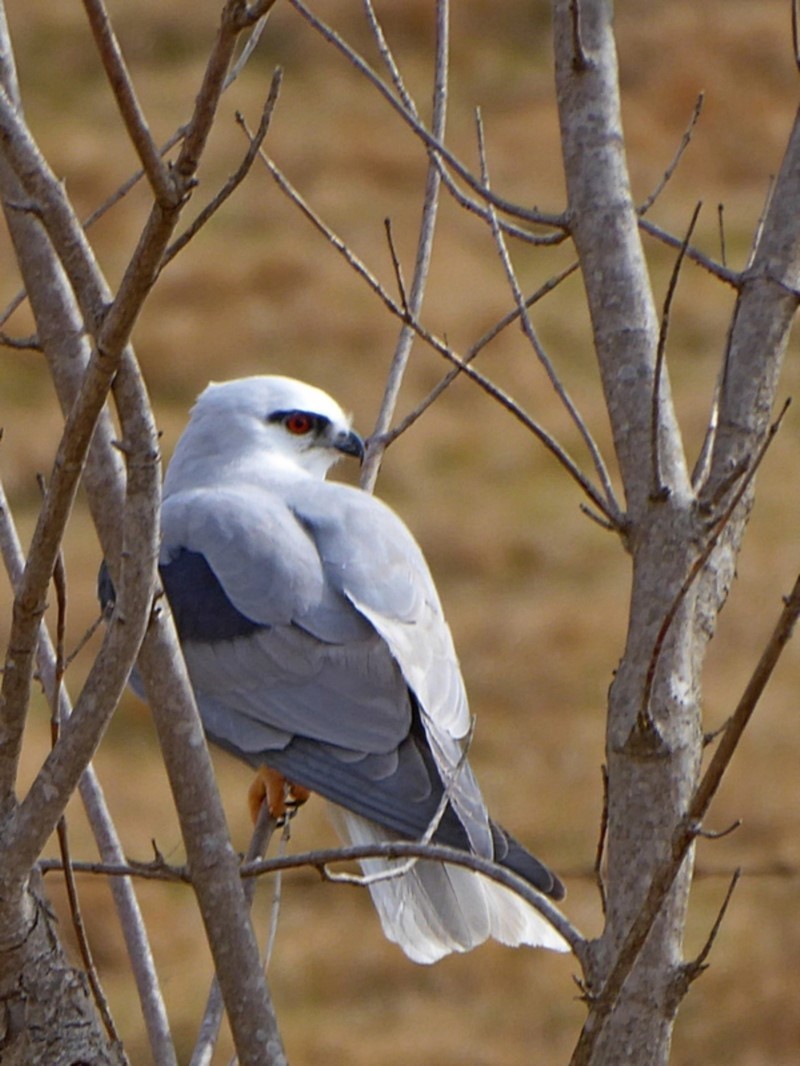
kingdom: Animalia
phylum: Chordata
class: Aves
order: Accipitriformes
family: Accipitridae
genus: Elanus
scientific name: Elanus axillaris
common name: Black-shouldered kite
